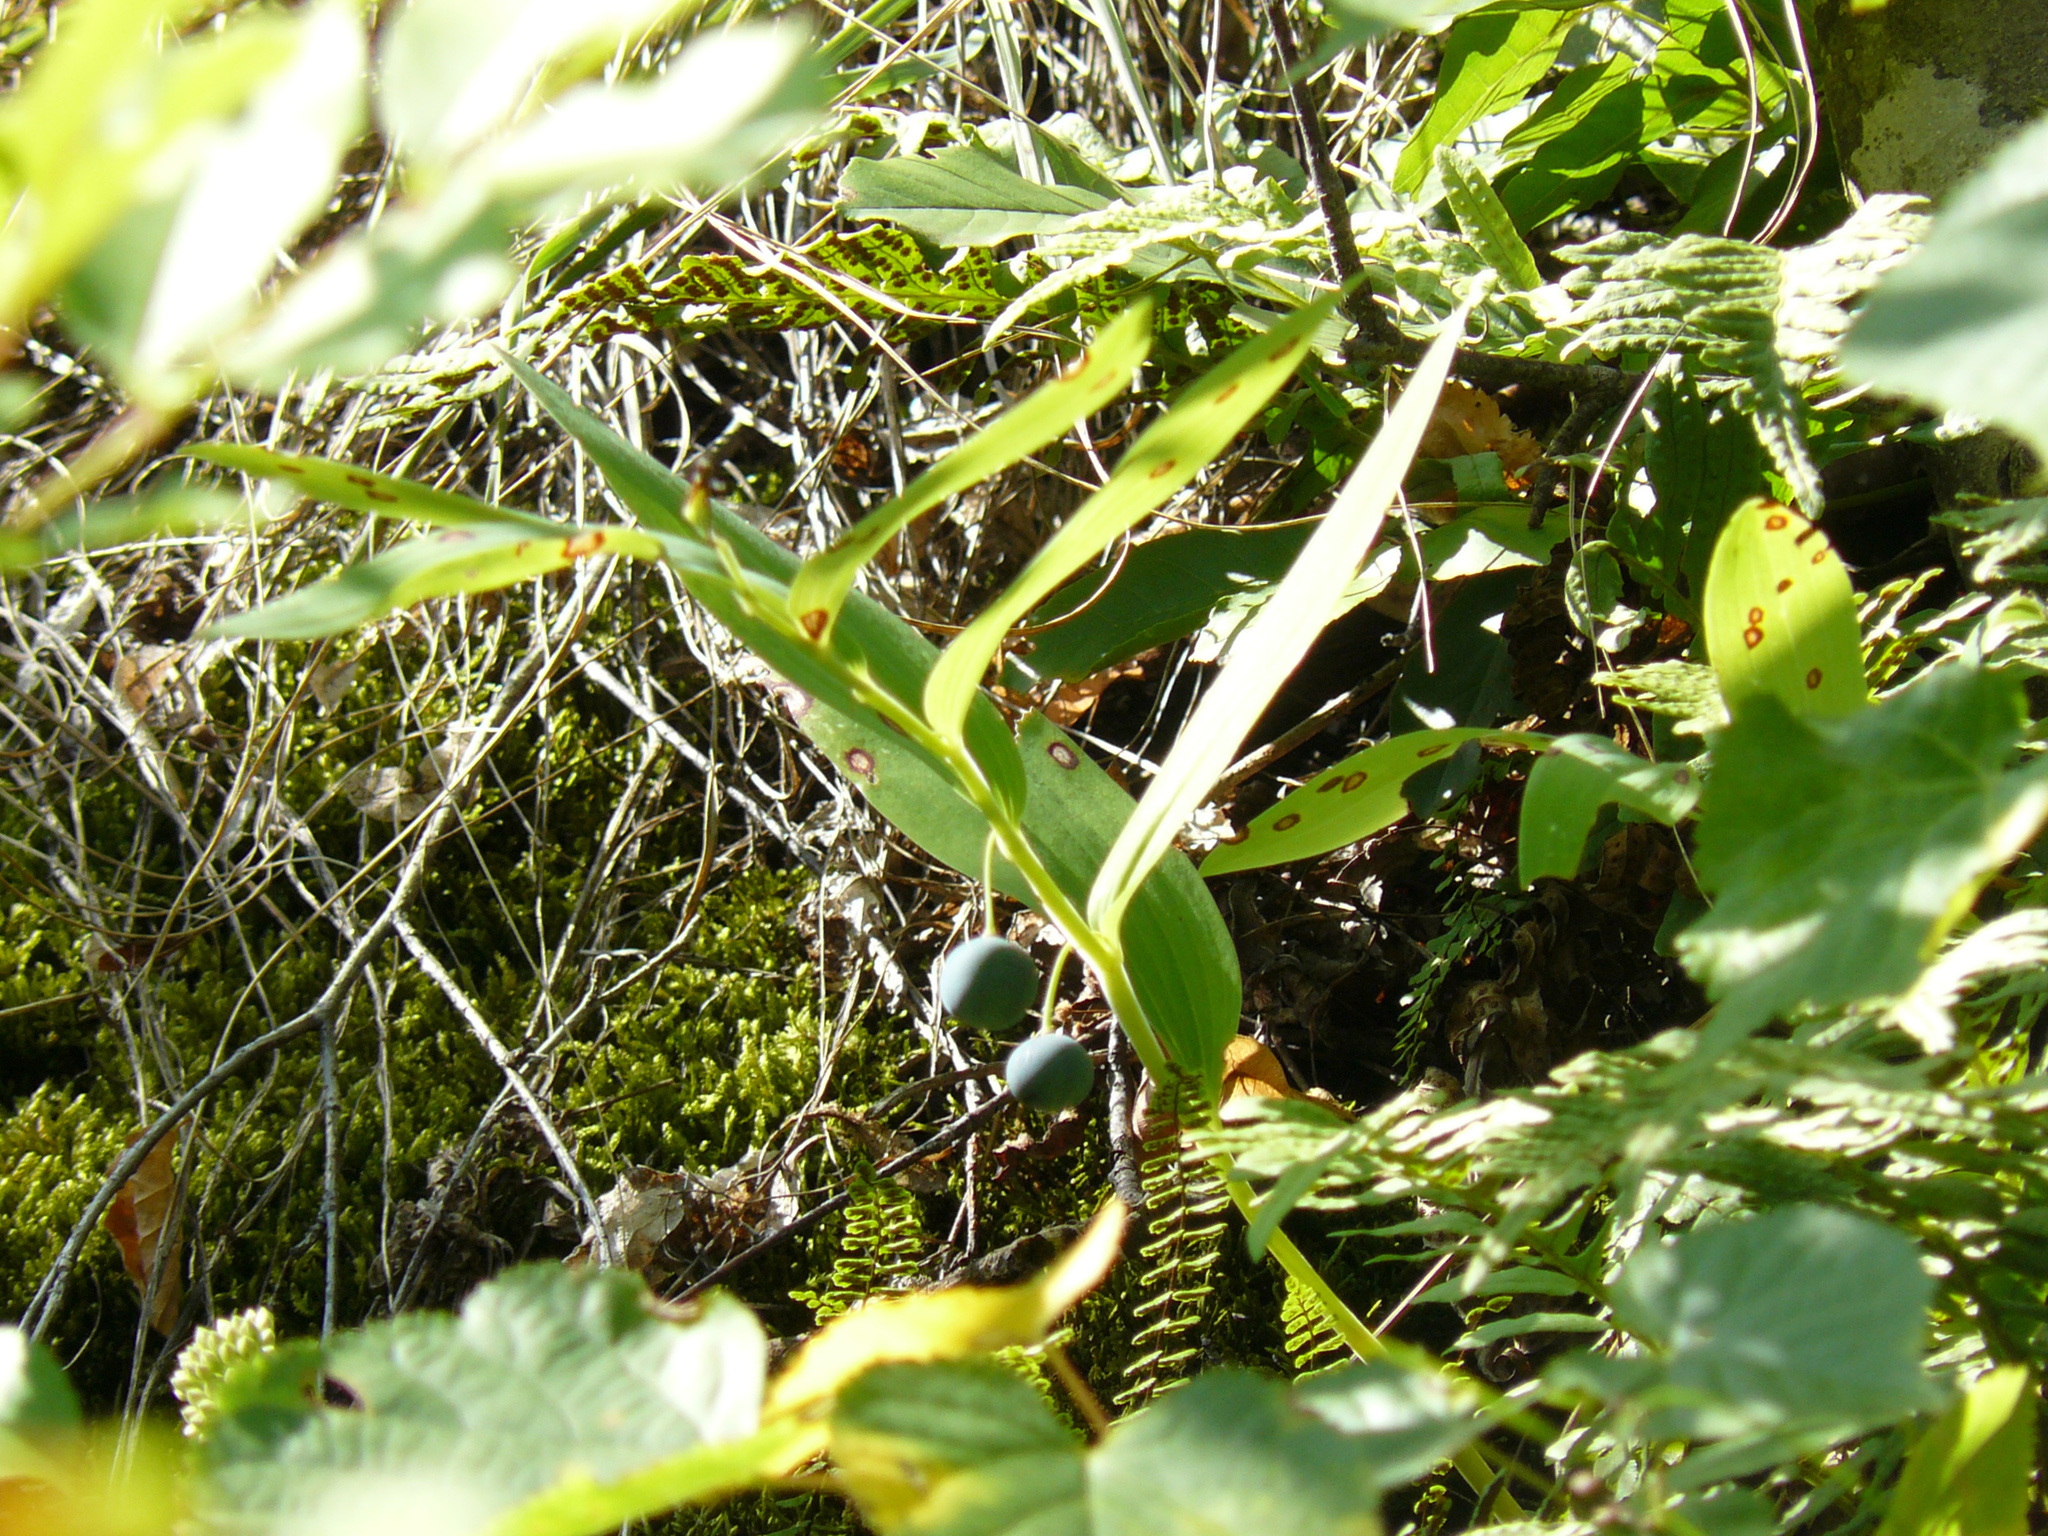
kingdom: Plantae
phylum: Tracheophyta
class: Liliopsida
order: Asparagales
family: Asparagaceae
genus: Polygonatum
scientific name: Polygonatum multiflorum
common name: Solomon's-seal
